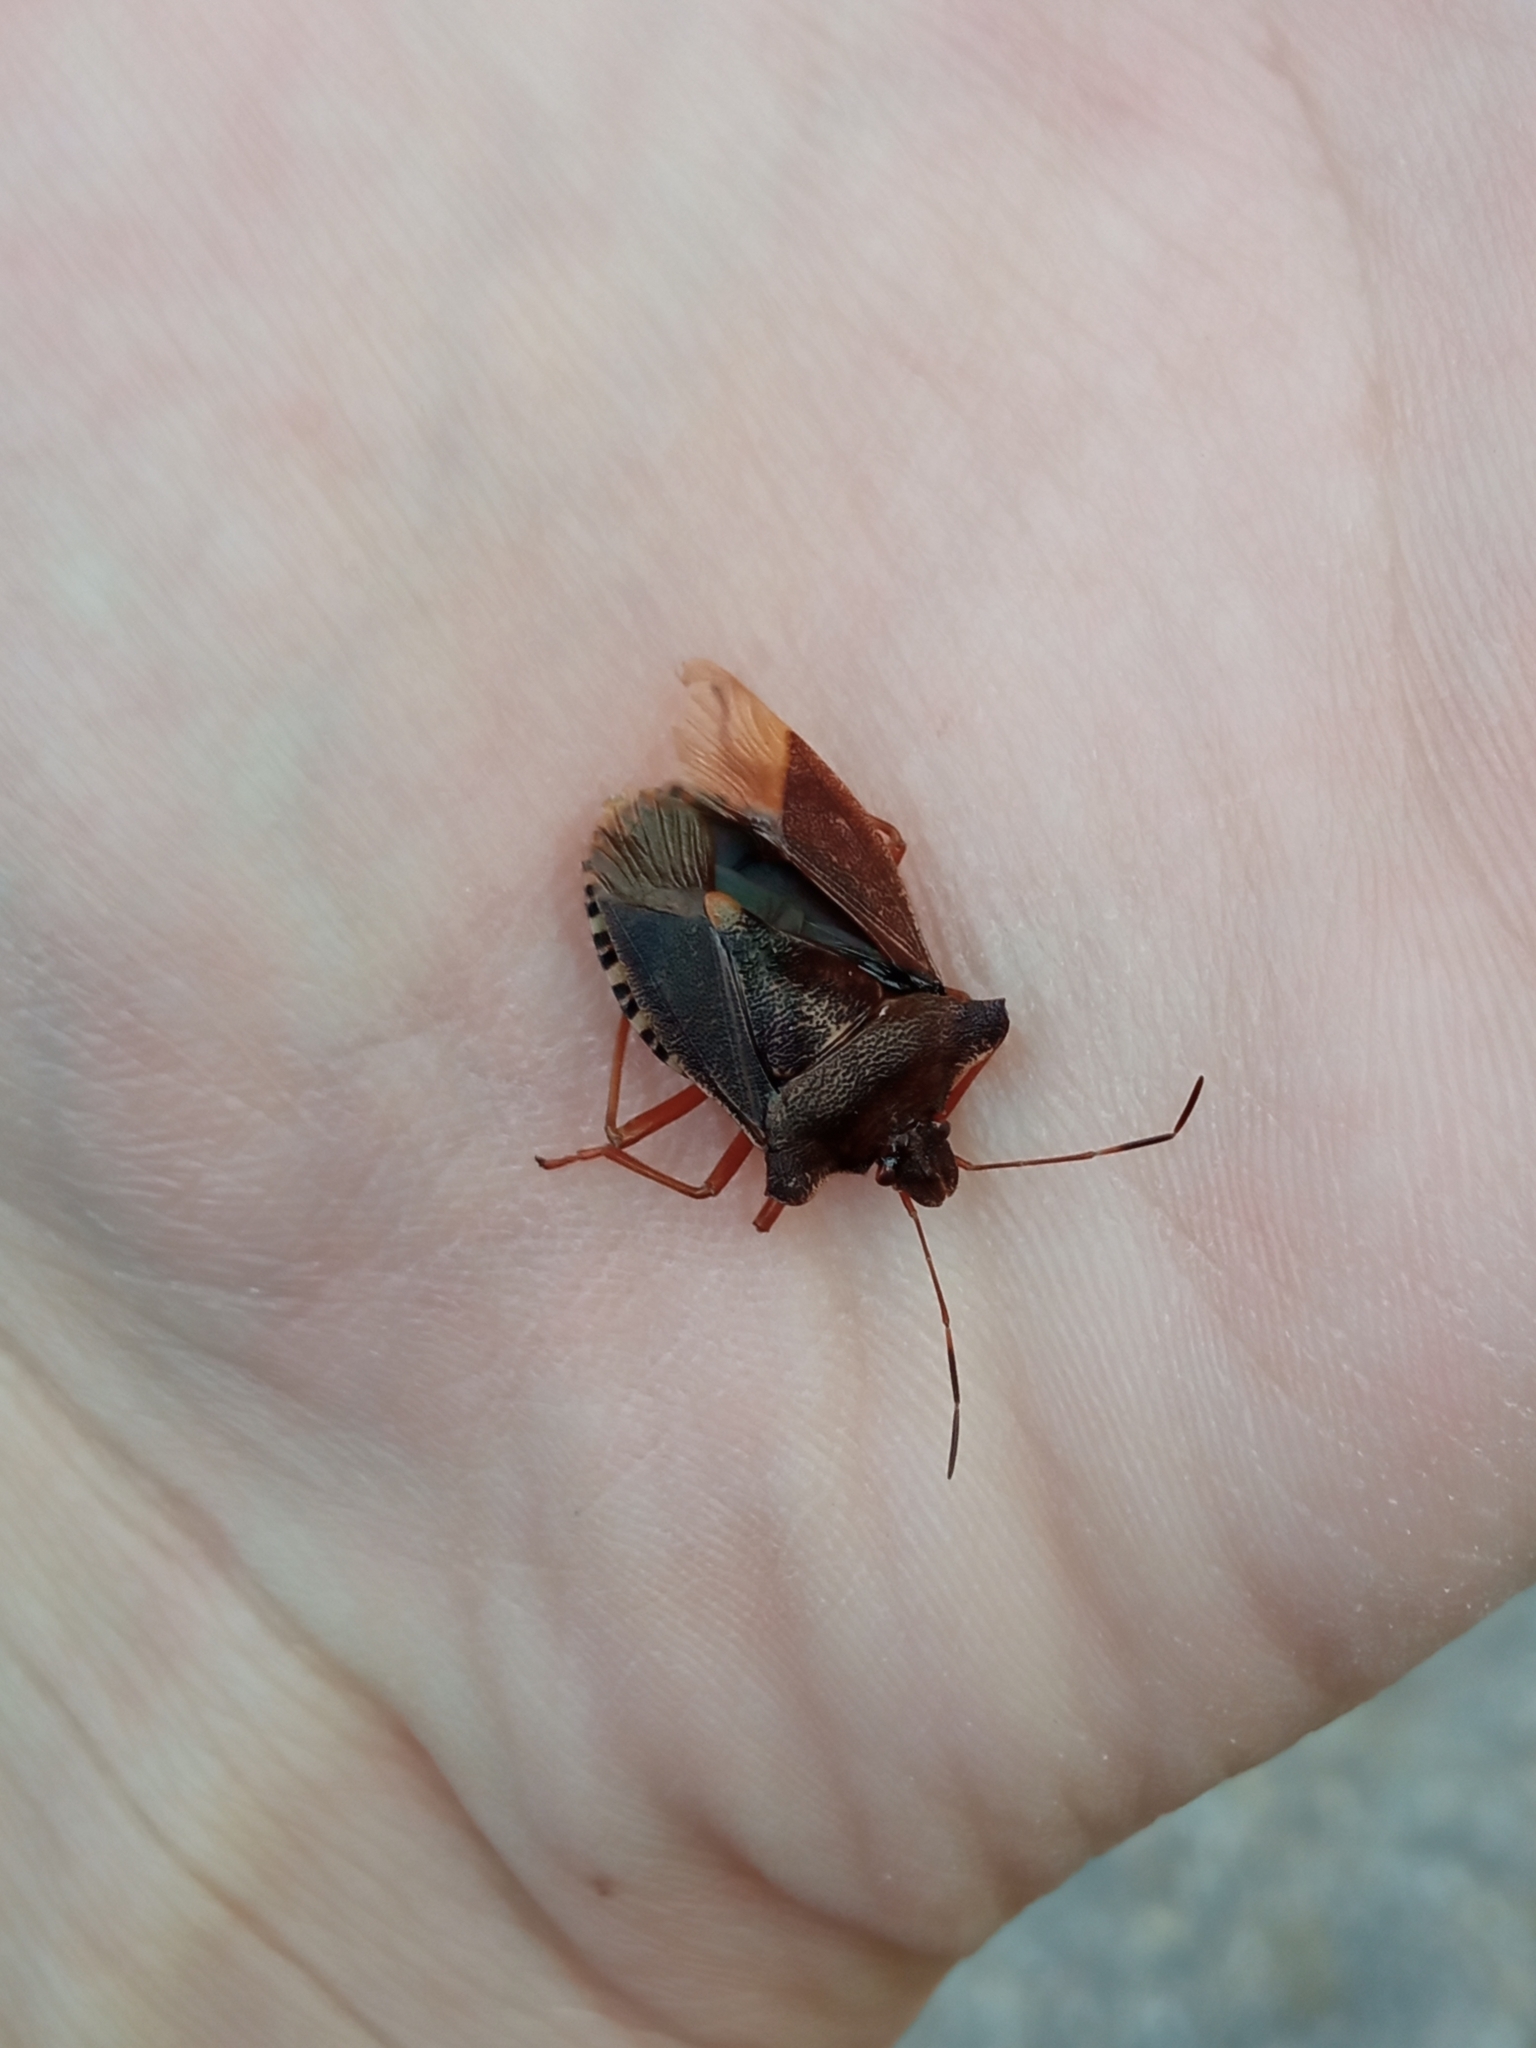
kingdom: Animalia
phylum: Arthropoda
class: Insecta
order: Hemiptera
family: Pentatomidae
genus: Pentatoma
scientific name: Pentatoma rufipes
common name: Forest bug
